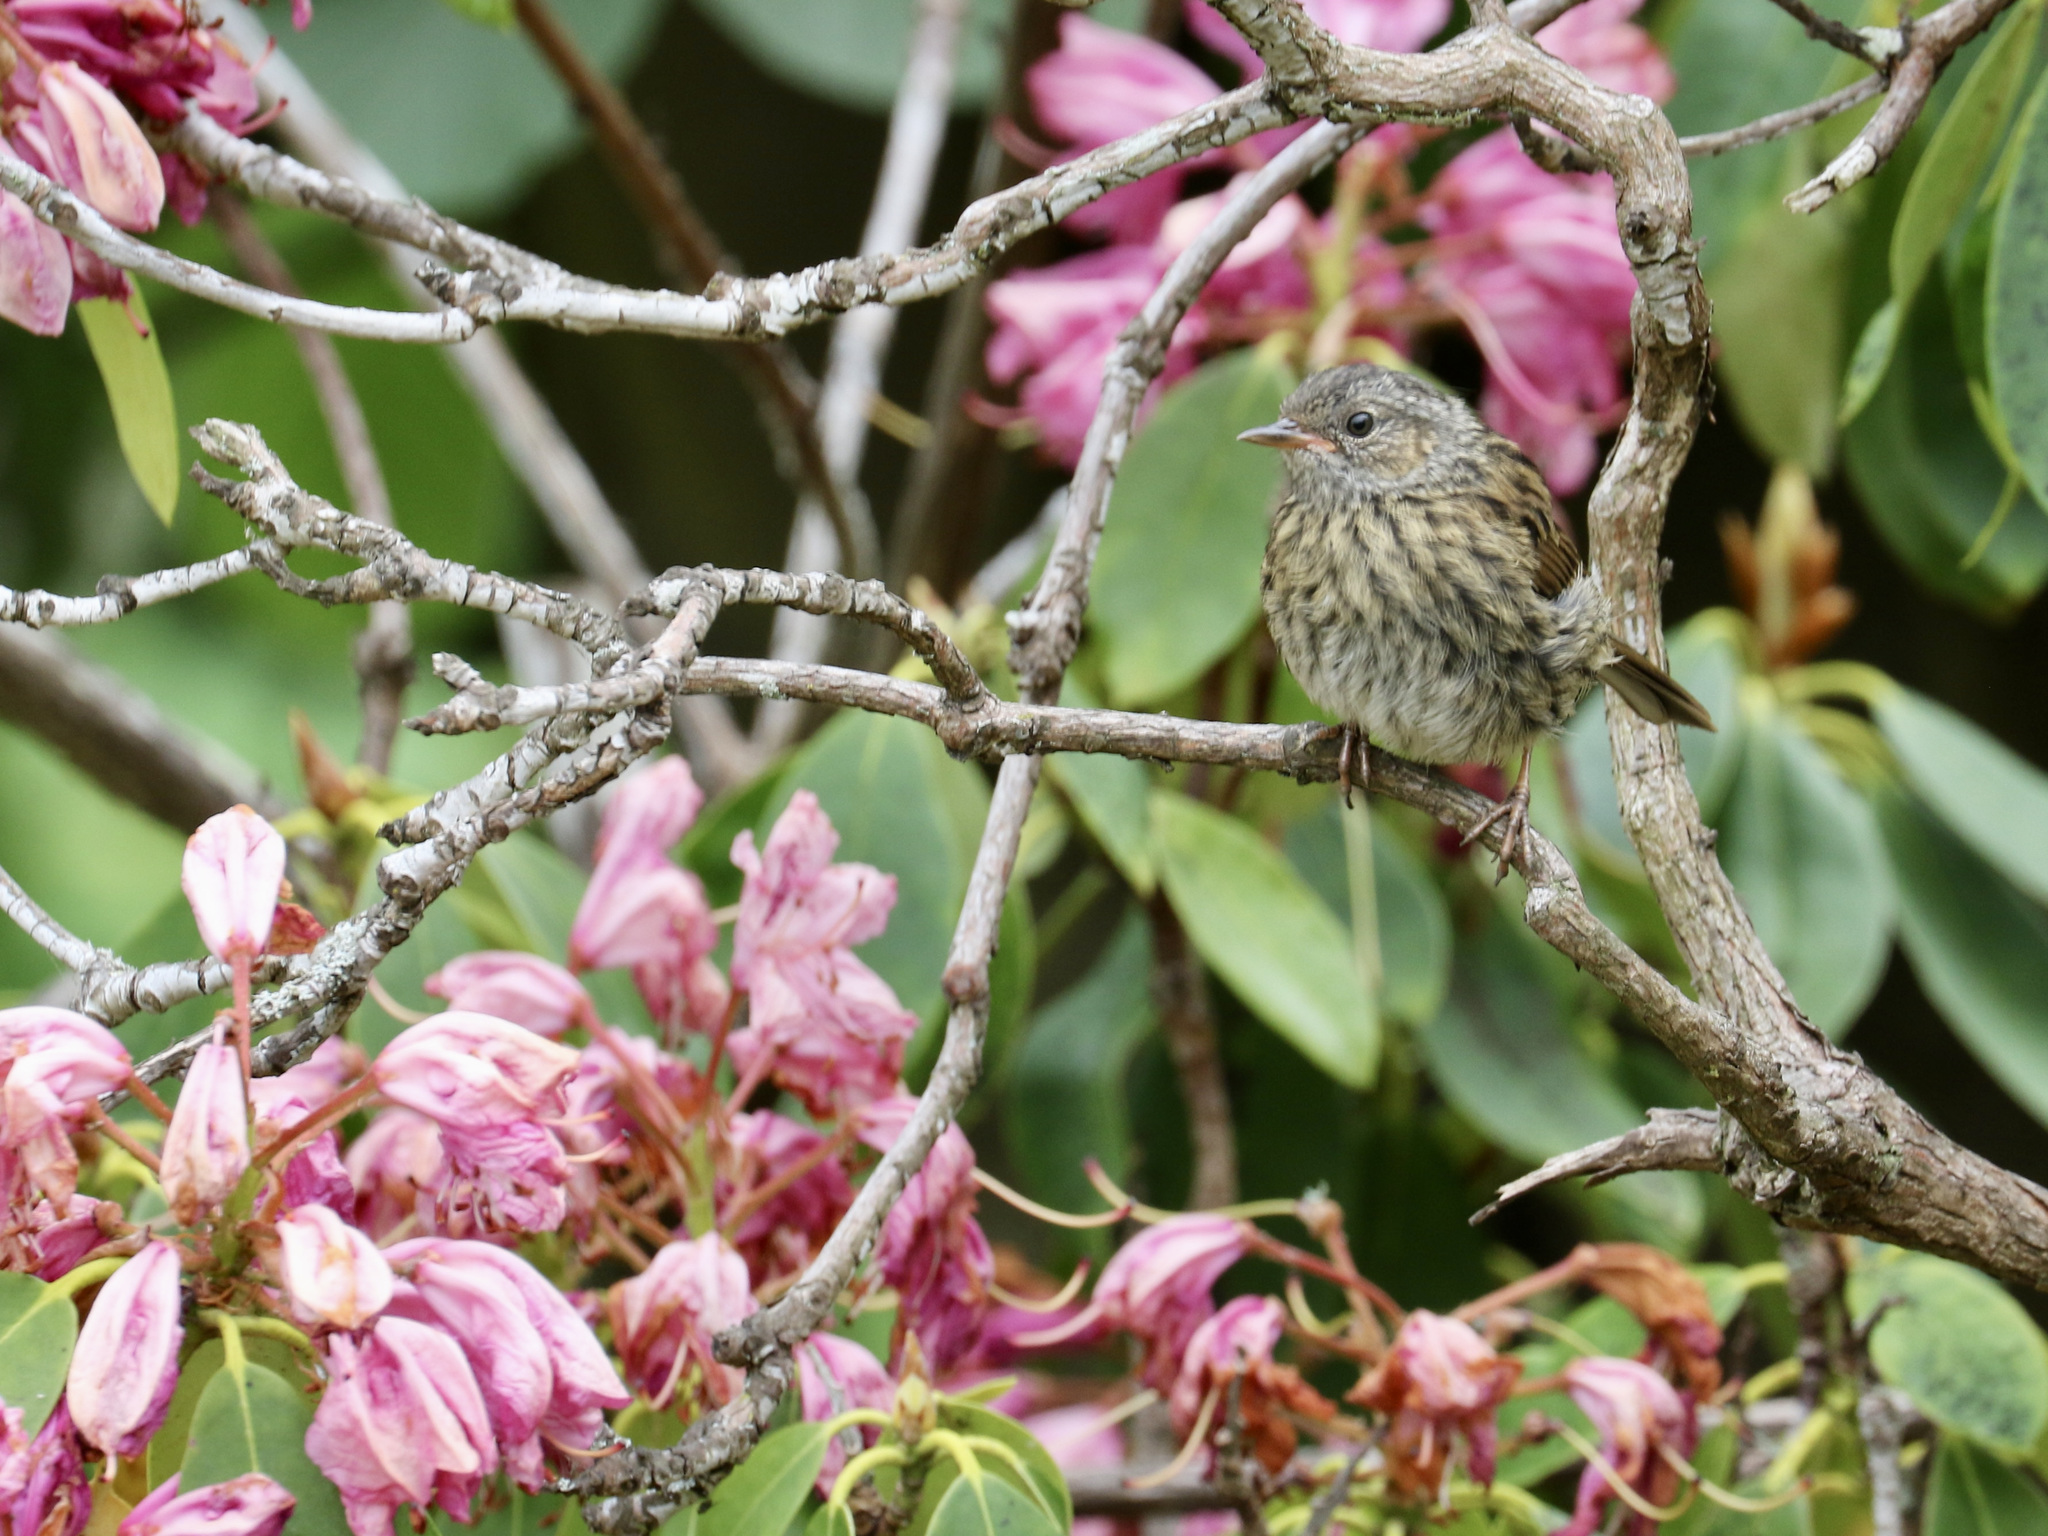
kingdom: Animalia
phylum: Chordata
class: Aves
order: Passeriformes
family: Prunellidae
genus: Prunella
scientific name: Prunella modularis
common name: Dunnock
